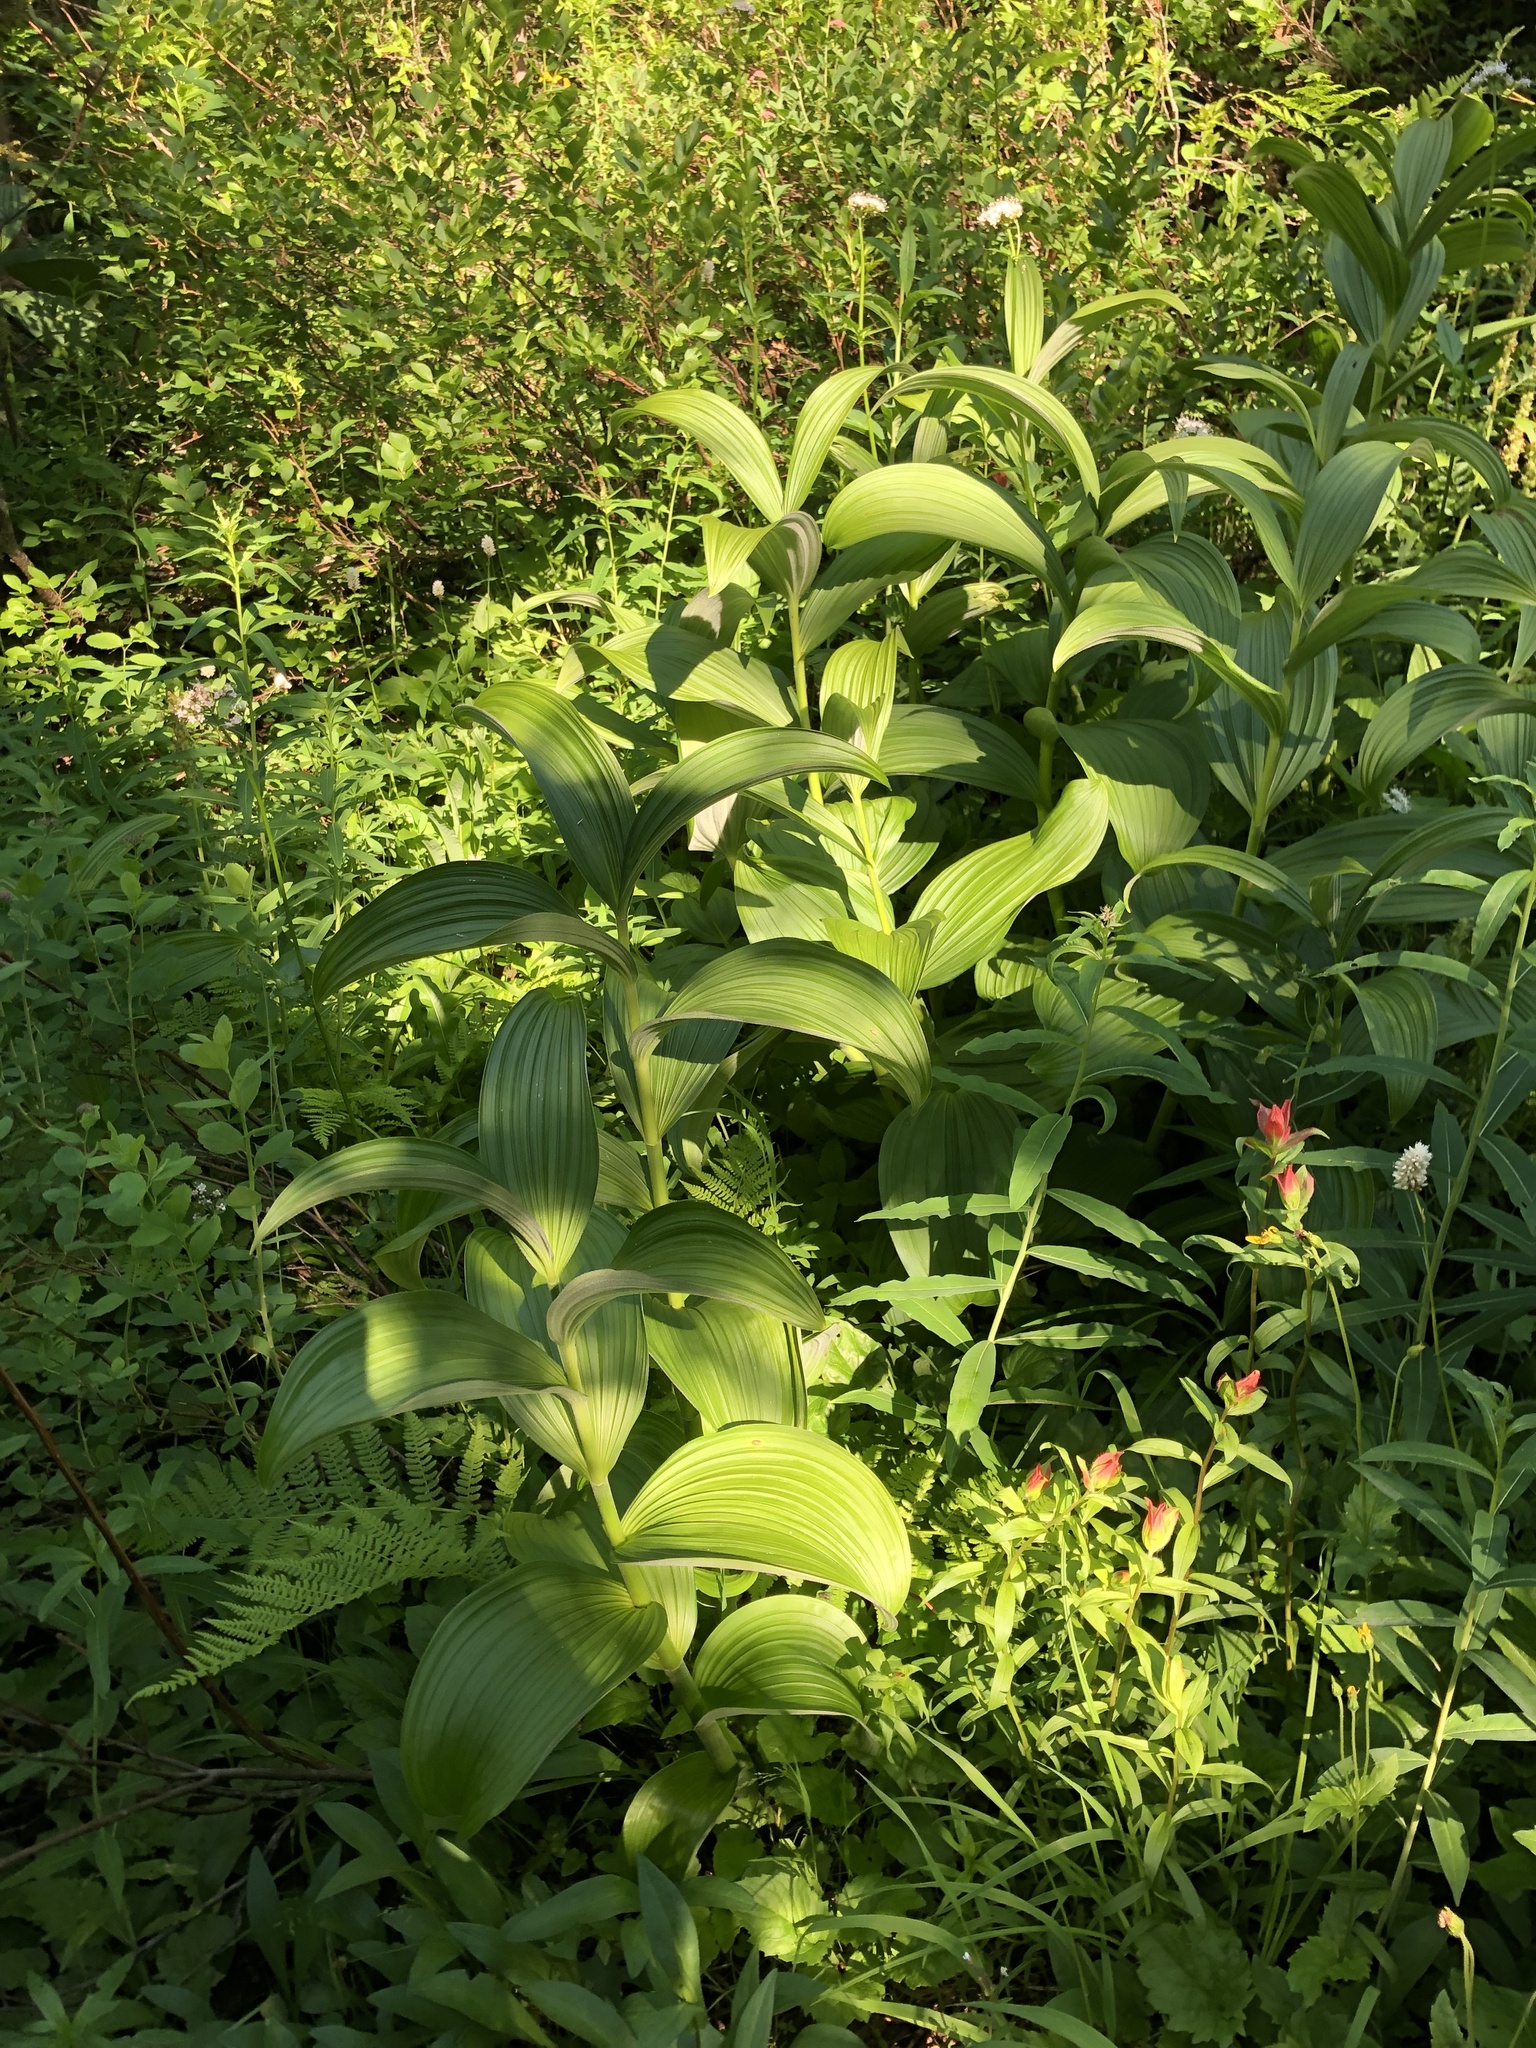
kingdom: Plantae
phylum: Tracheophyta
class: Liliopsida
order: Liliales
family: Melanthiaceae
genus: Veratrum
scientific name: Veratrum viride
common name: American false hellebore
